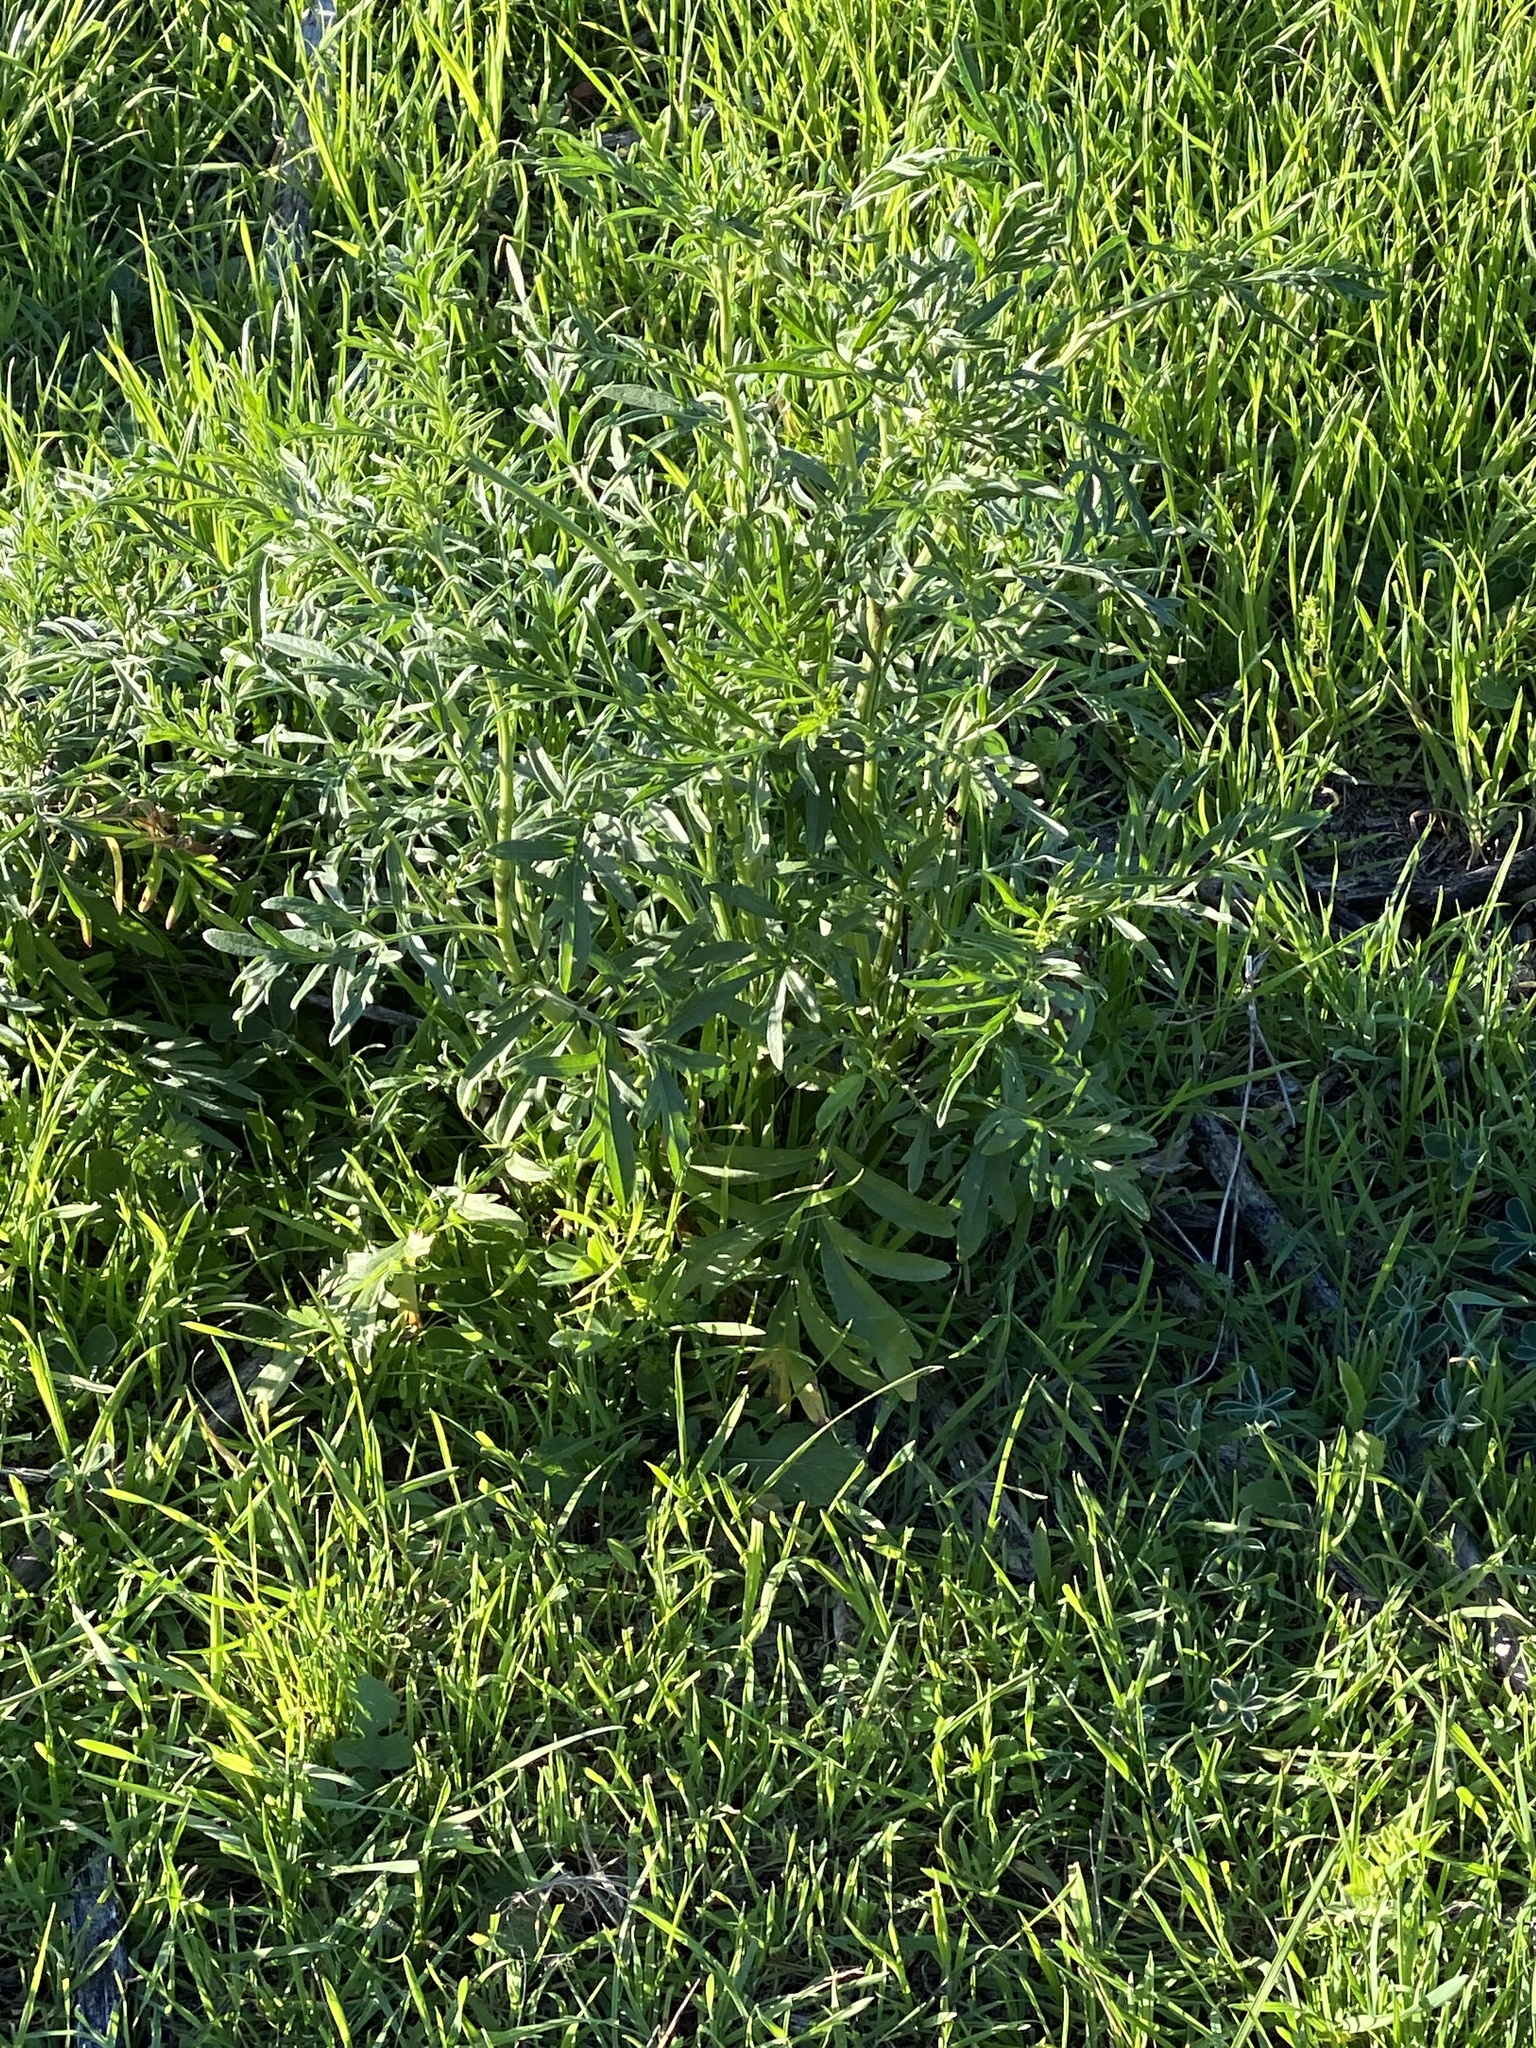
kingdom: Plantae
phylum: Tracheophyta
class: Magnoliopsida
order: Asterales
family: Asteraceae
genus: Ratibida
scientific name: Ratibida columnifera
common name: Prairie coneflower
